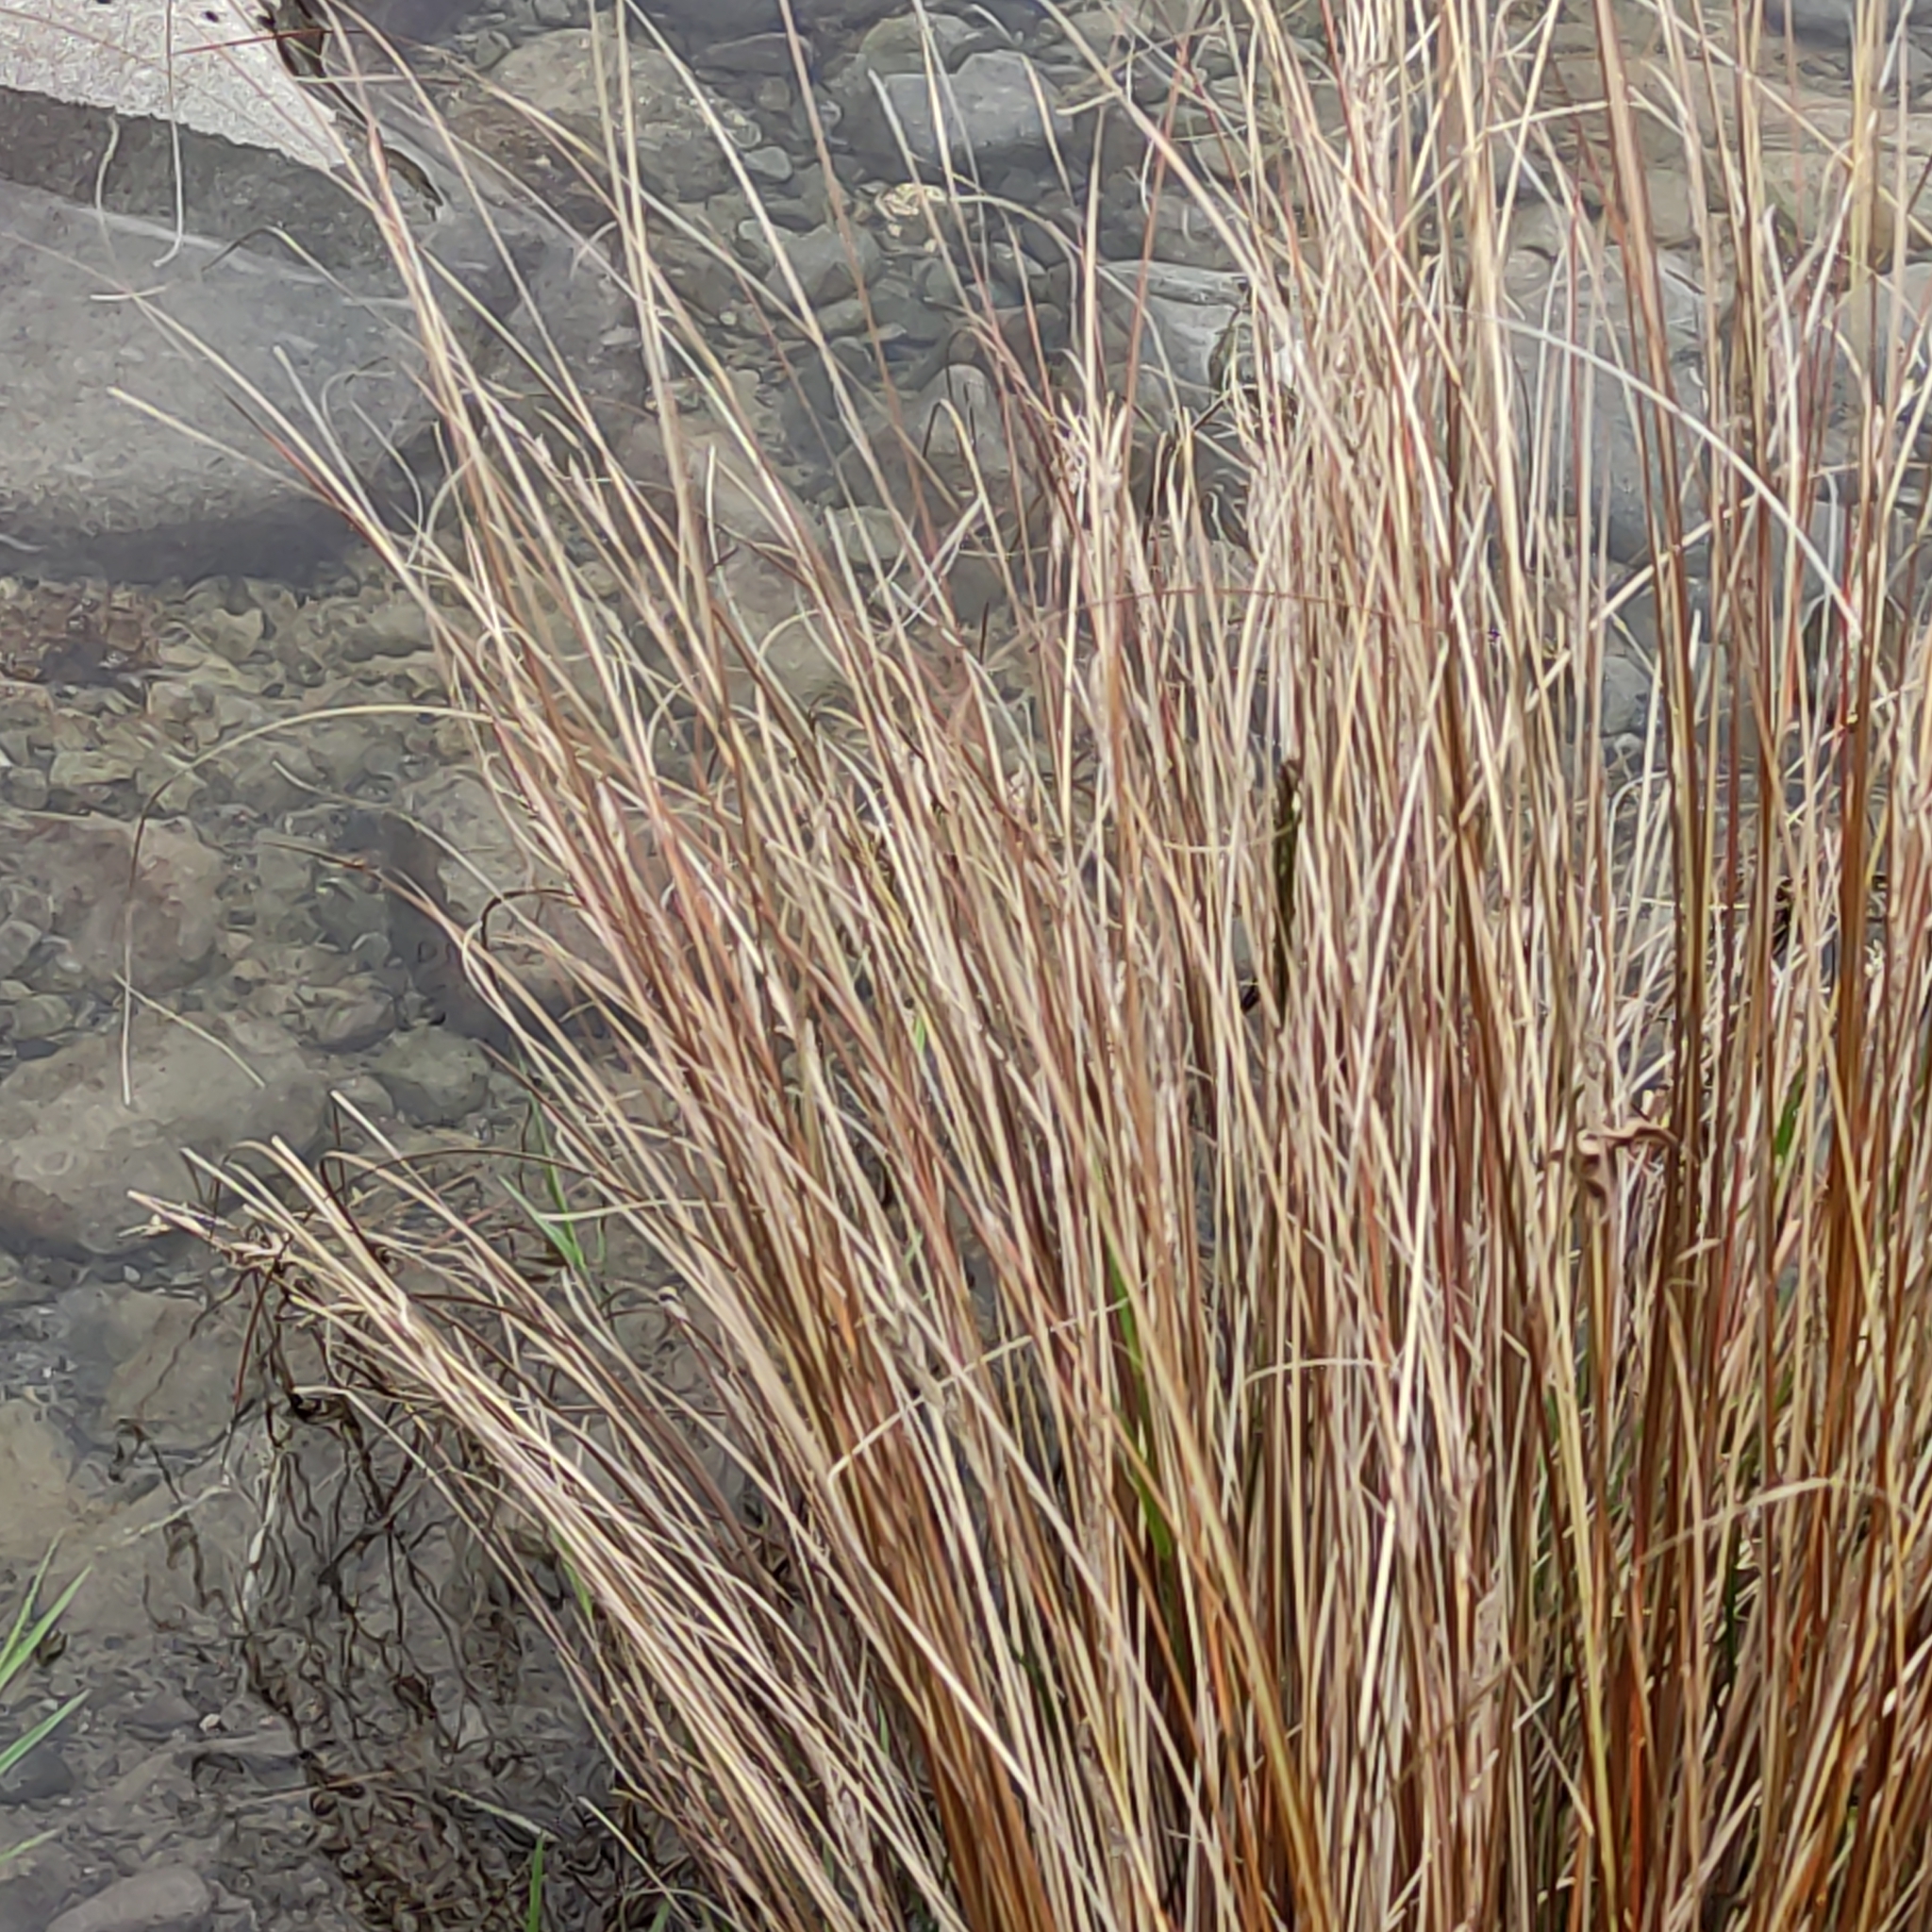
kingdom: Plantae
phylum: Tracheophyta
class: Liliopsida
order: Poales
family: Cyperaceae
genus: Carex
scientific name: Carex buchananii
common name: Leatherleaf sedge
